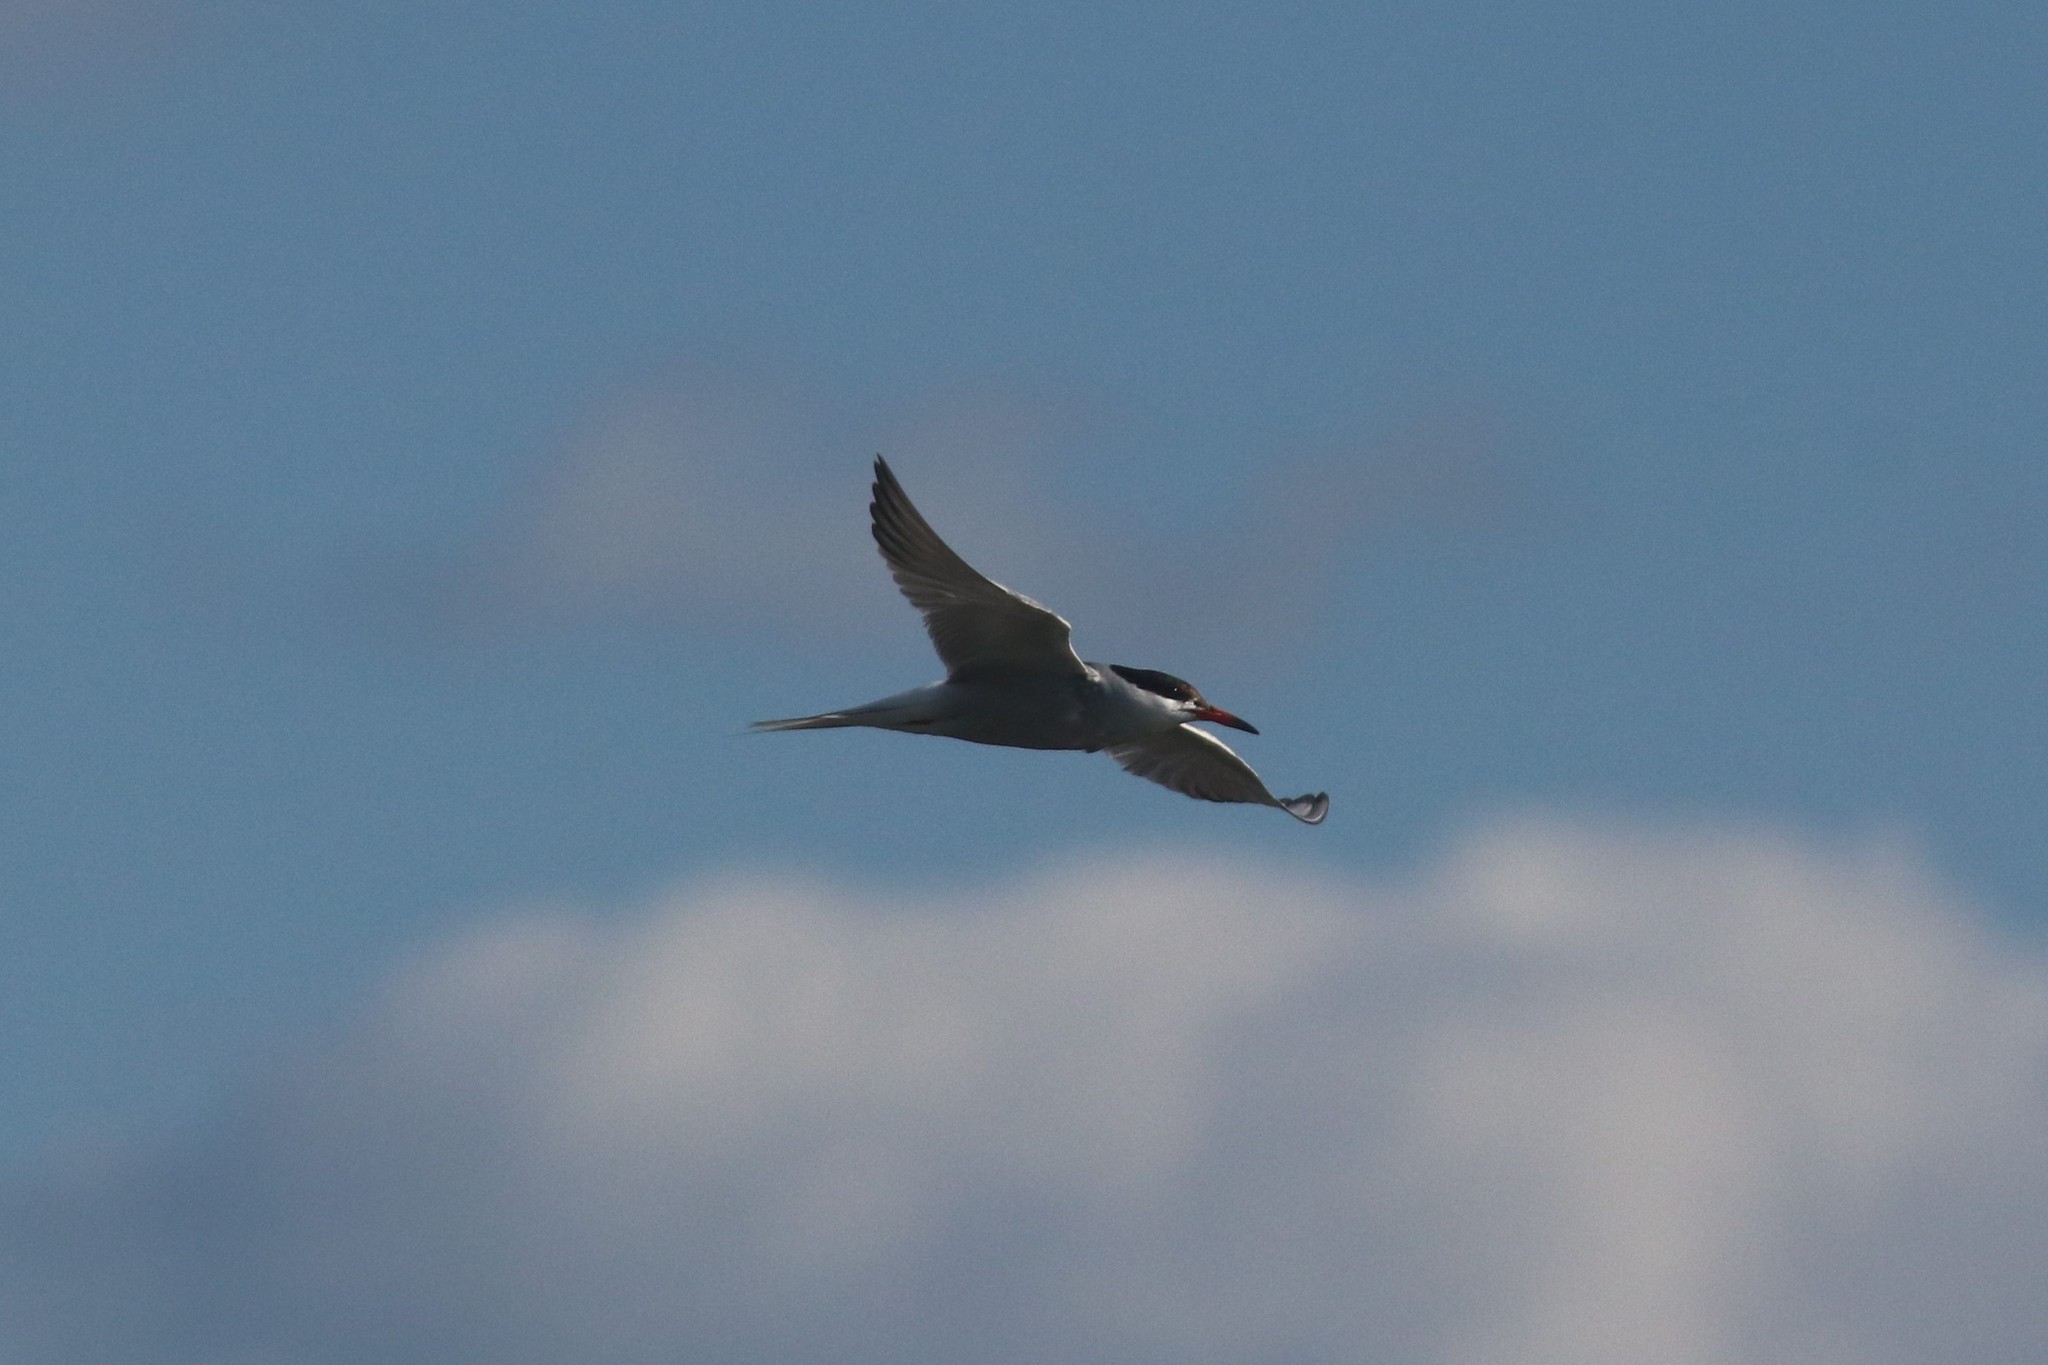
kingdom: Animalia
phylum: Chordata
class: Aves
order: Charadriiformes
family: Laridae
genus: Sterna
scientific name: Sterna hirundo
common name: Common tern
